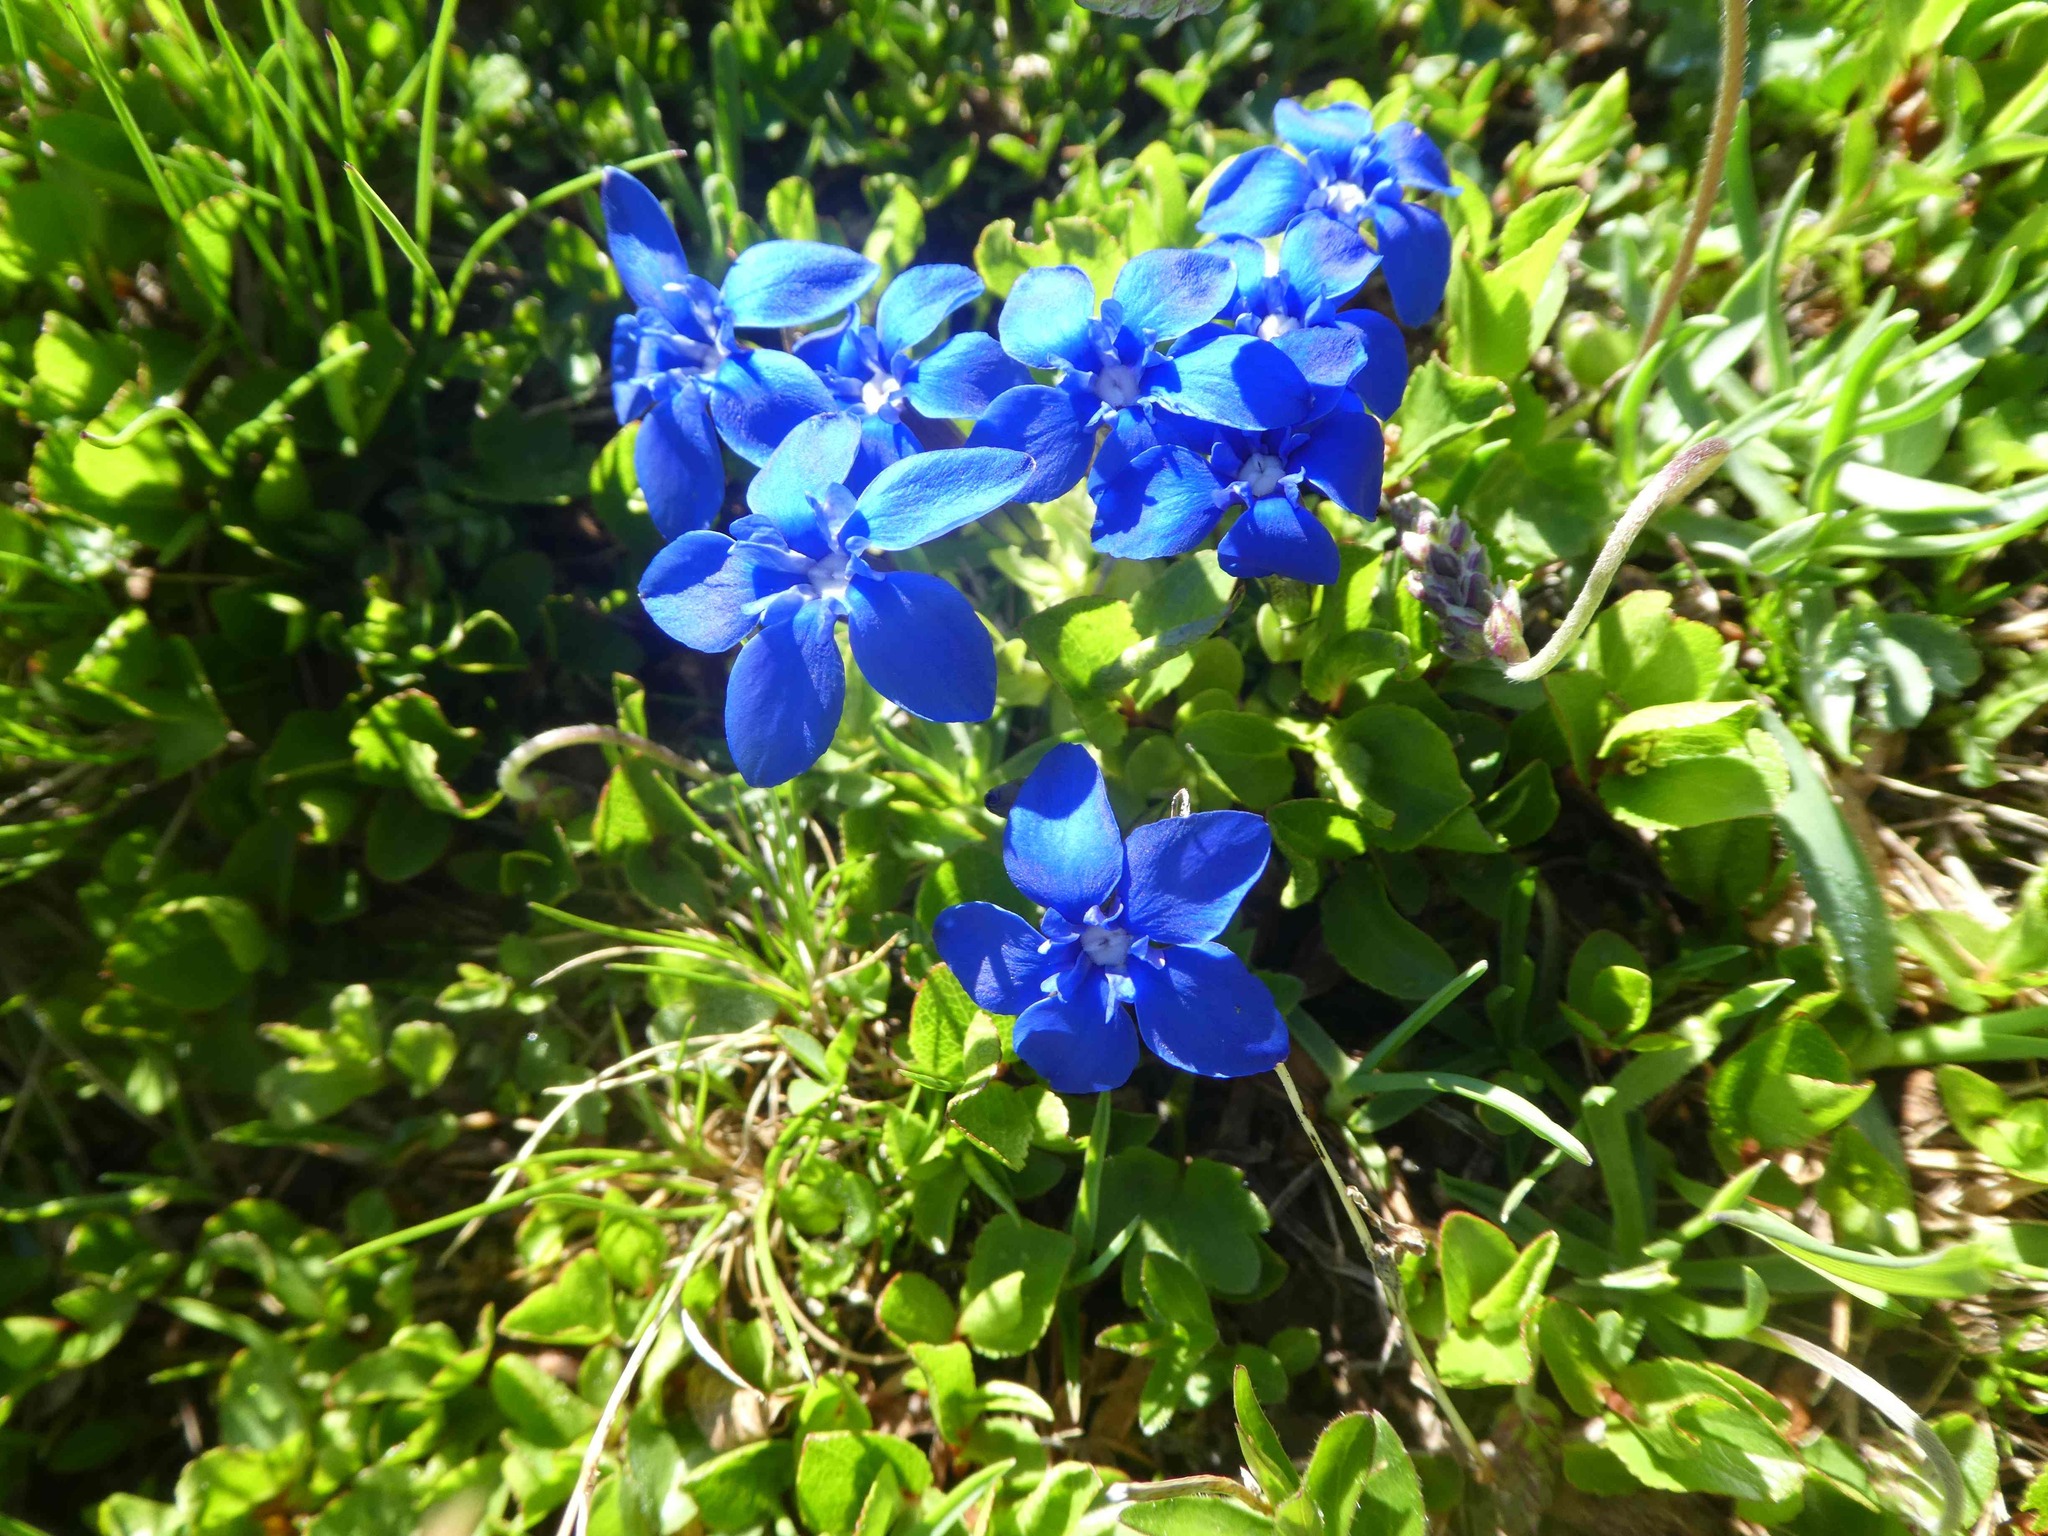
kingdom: Plantae
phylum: Tracheophyta
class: Magnoliopsida
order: Gentianales
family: Gentianaceae
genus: Gentiana
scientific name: Gentiana brachyphylla
